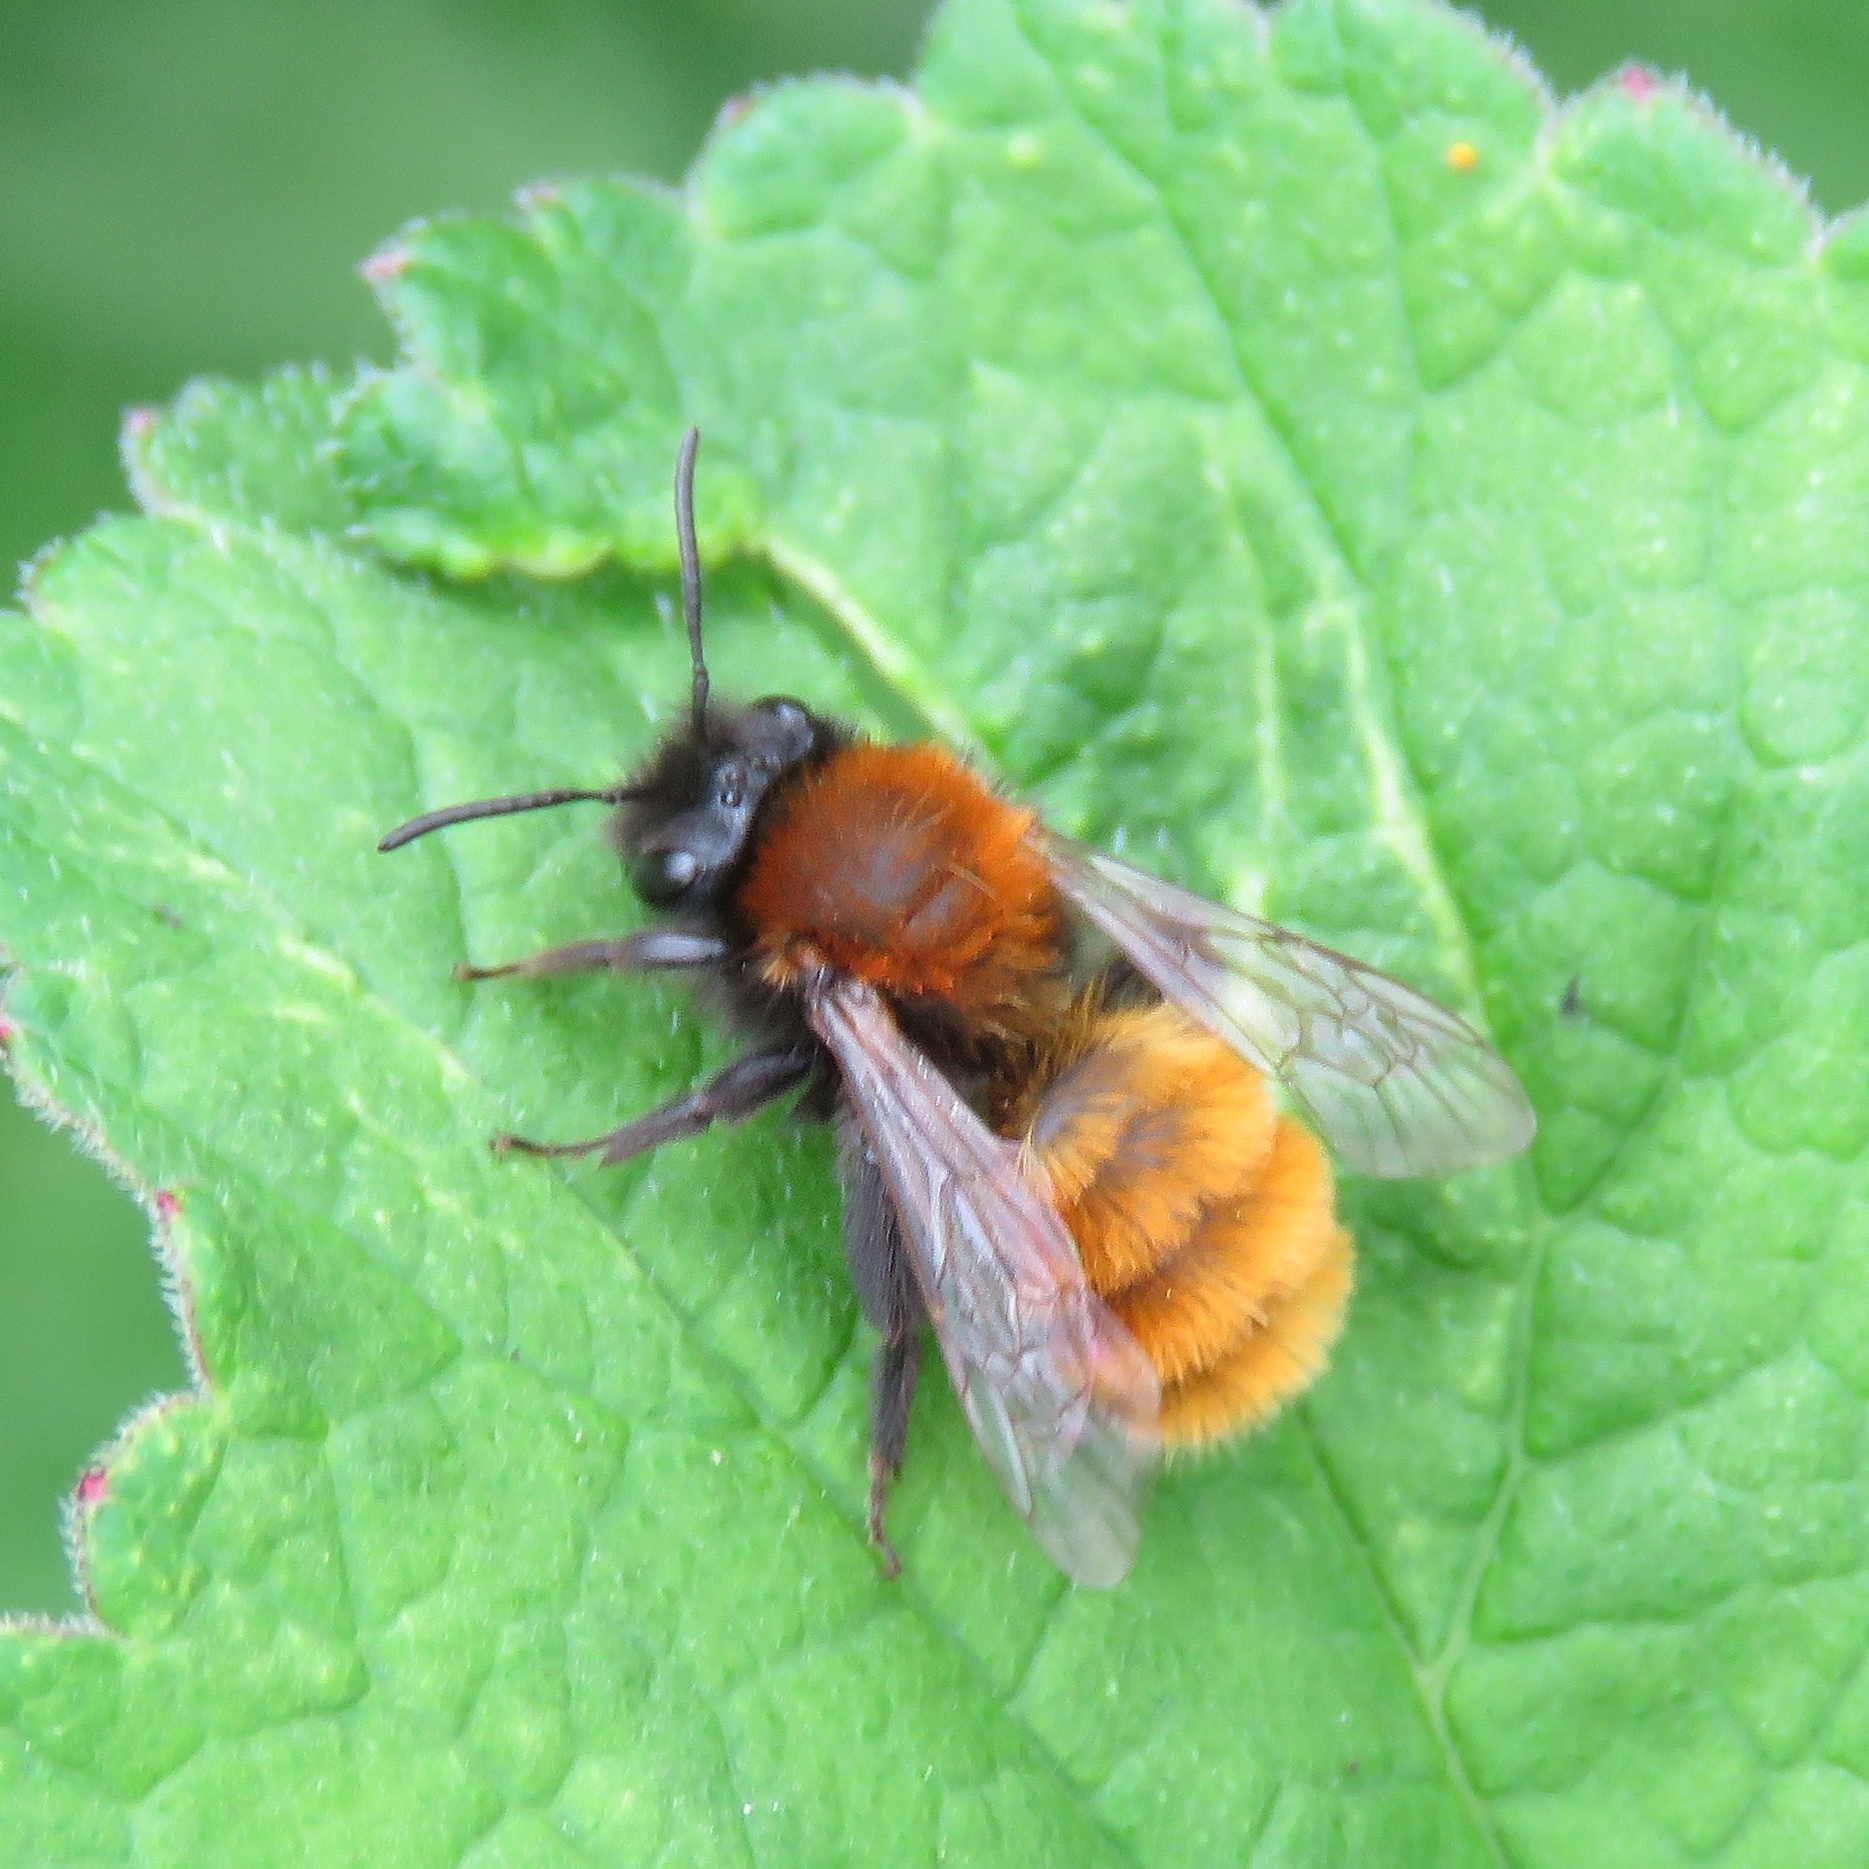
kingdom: Animalia
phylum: Arthropoda
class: Insecta
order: Hymenoptera
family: Andrenidae
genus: Andrena
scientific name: Andrena fulva
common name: Tawny mining bee
